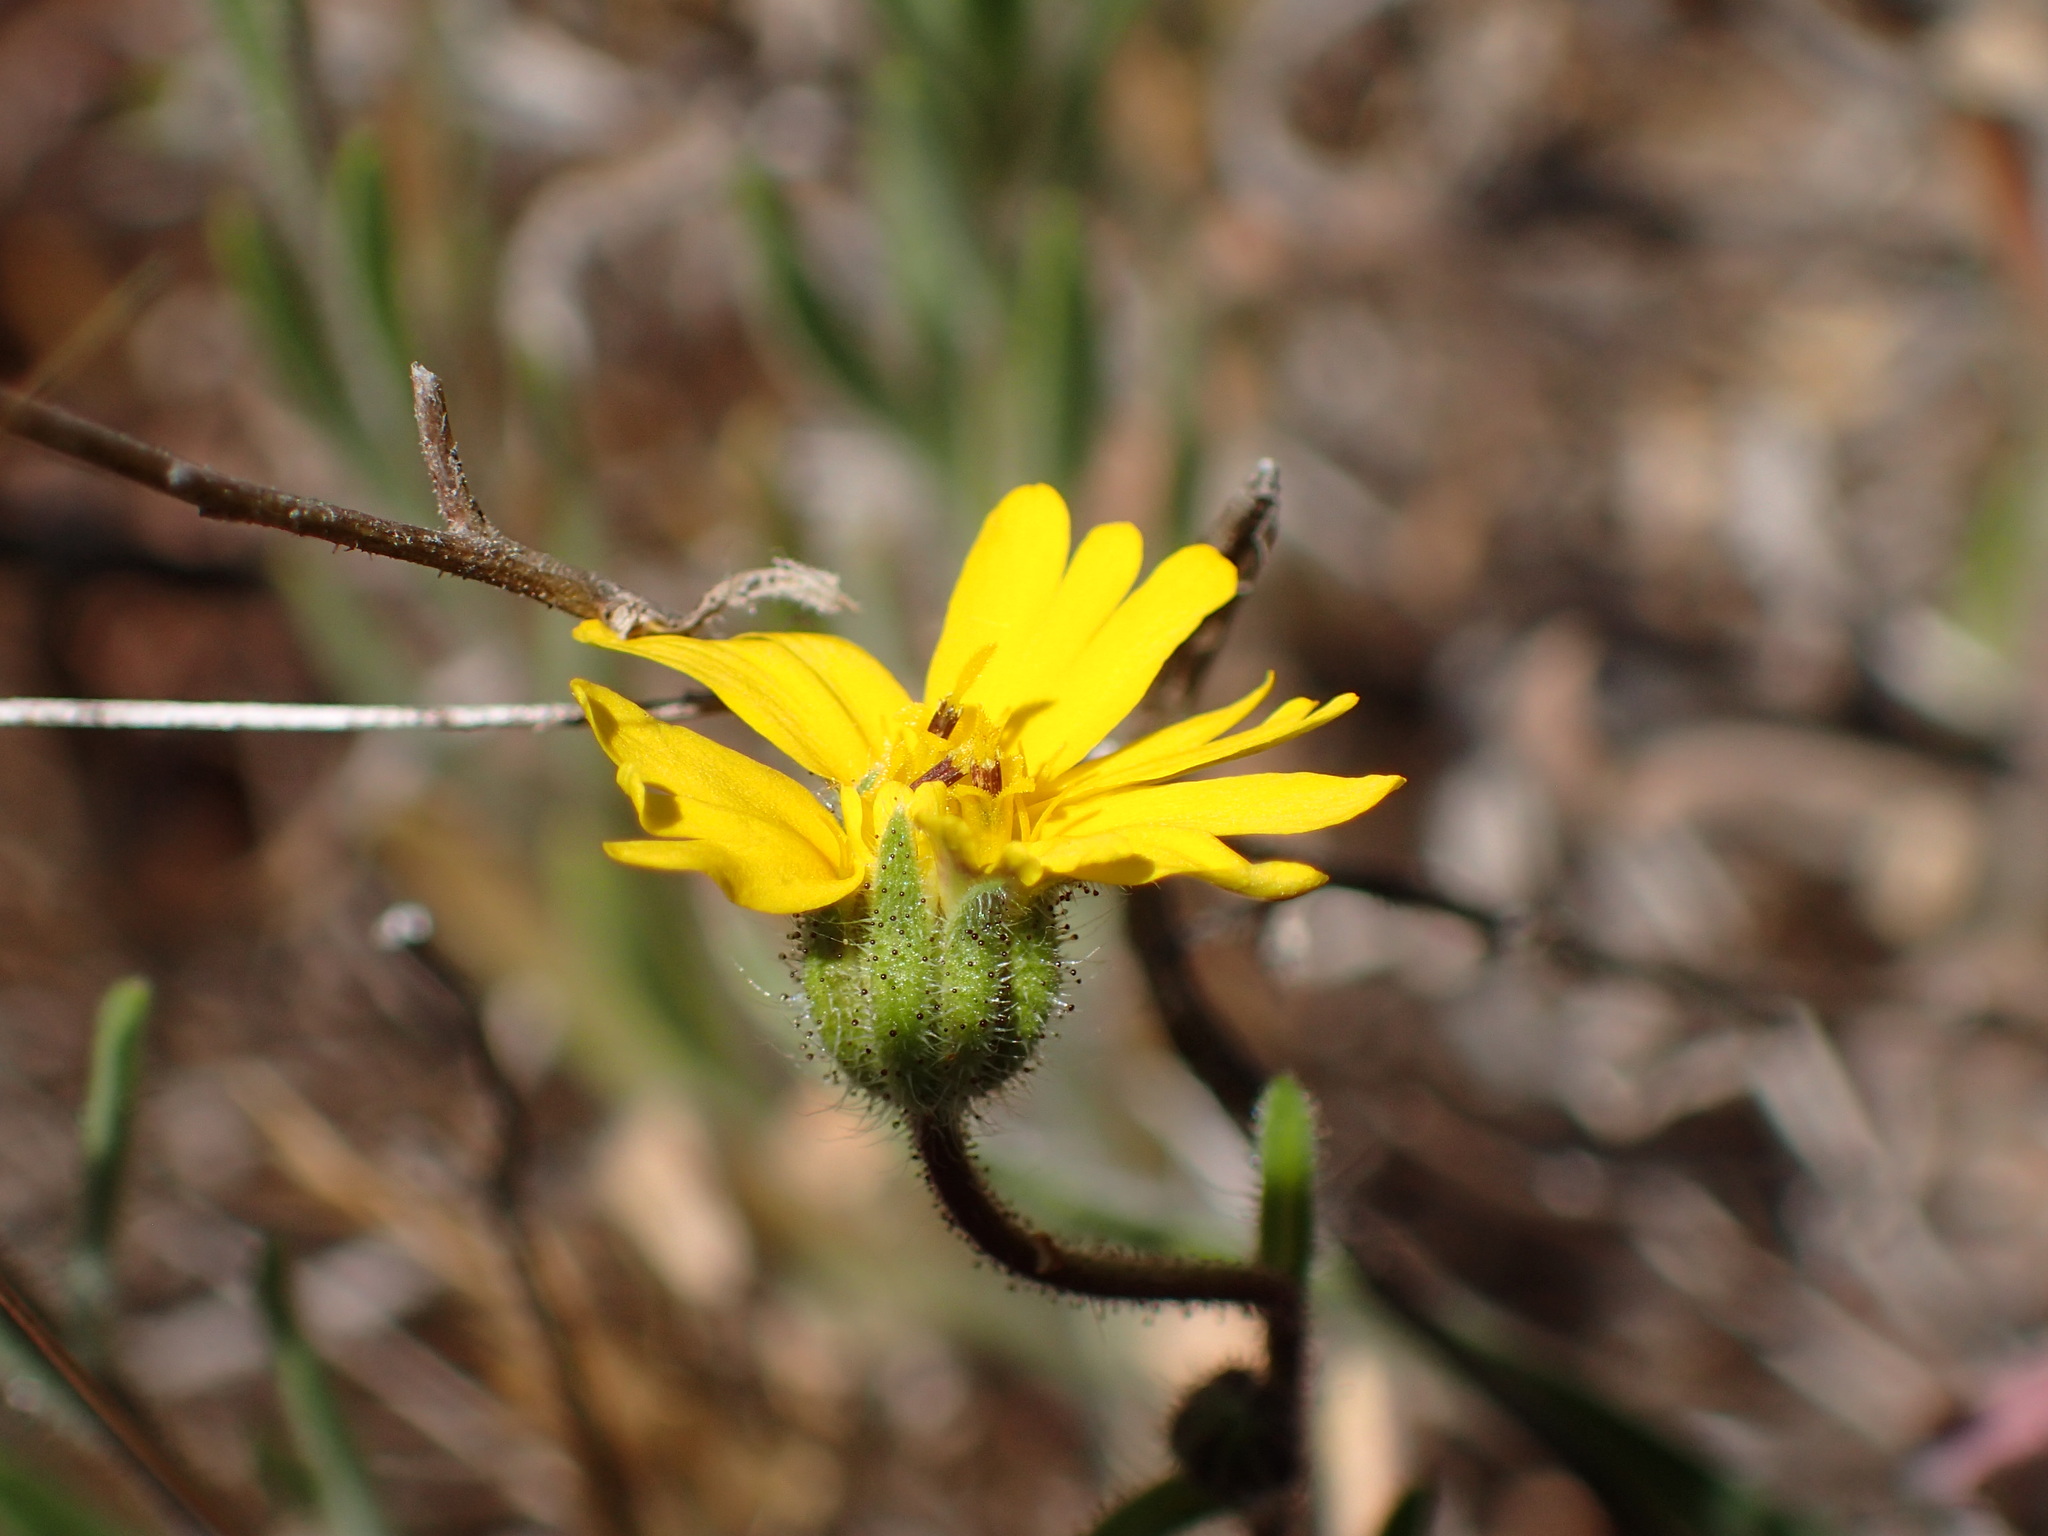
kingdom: Plantae
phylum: Tracheophyta
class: Magnoliopsida
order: Asterales
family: Asteraceae
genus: Madia
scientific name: Madia elegans
